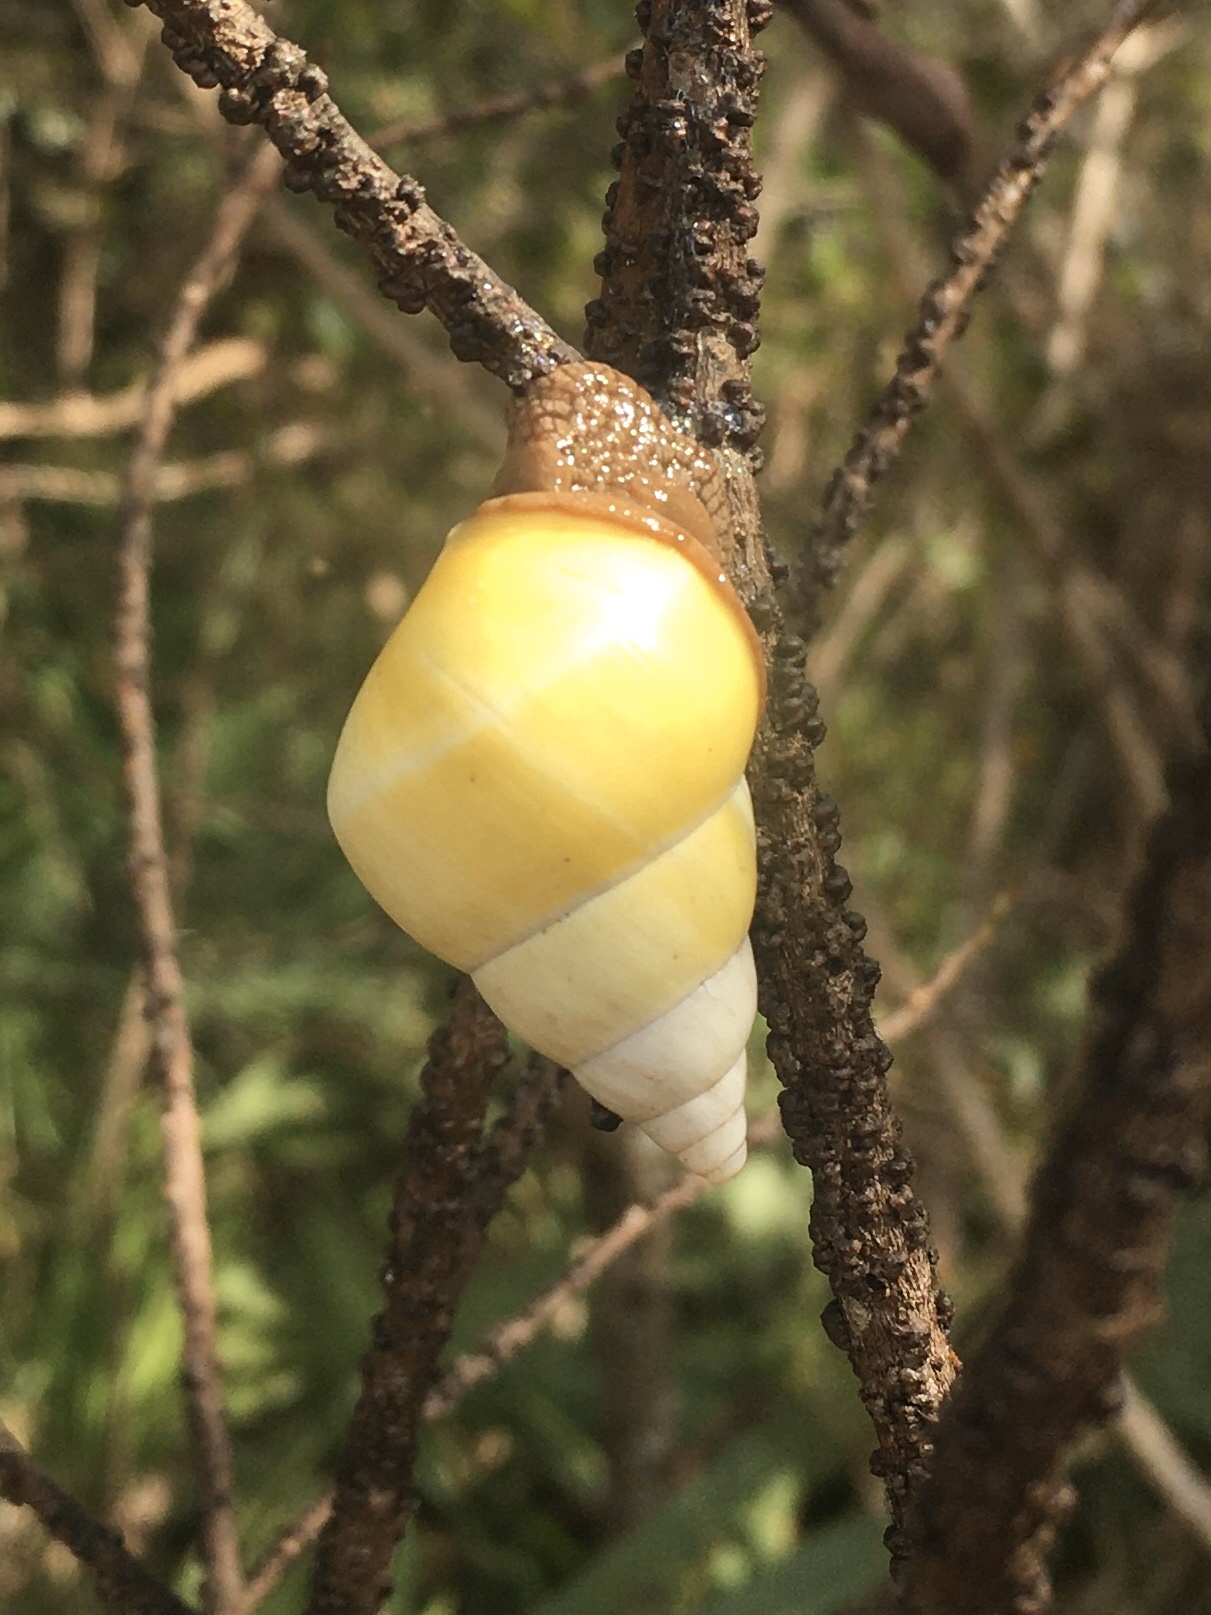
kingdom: Animalia
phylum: Mollusca
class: Gastropoda
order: Stylommatophora
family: Orthalicidae
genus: Liguus
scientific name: Liguus fasciatus
